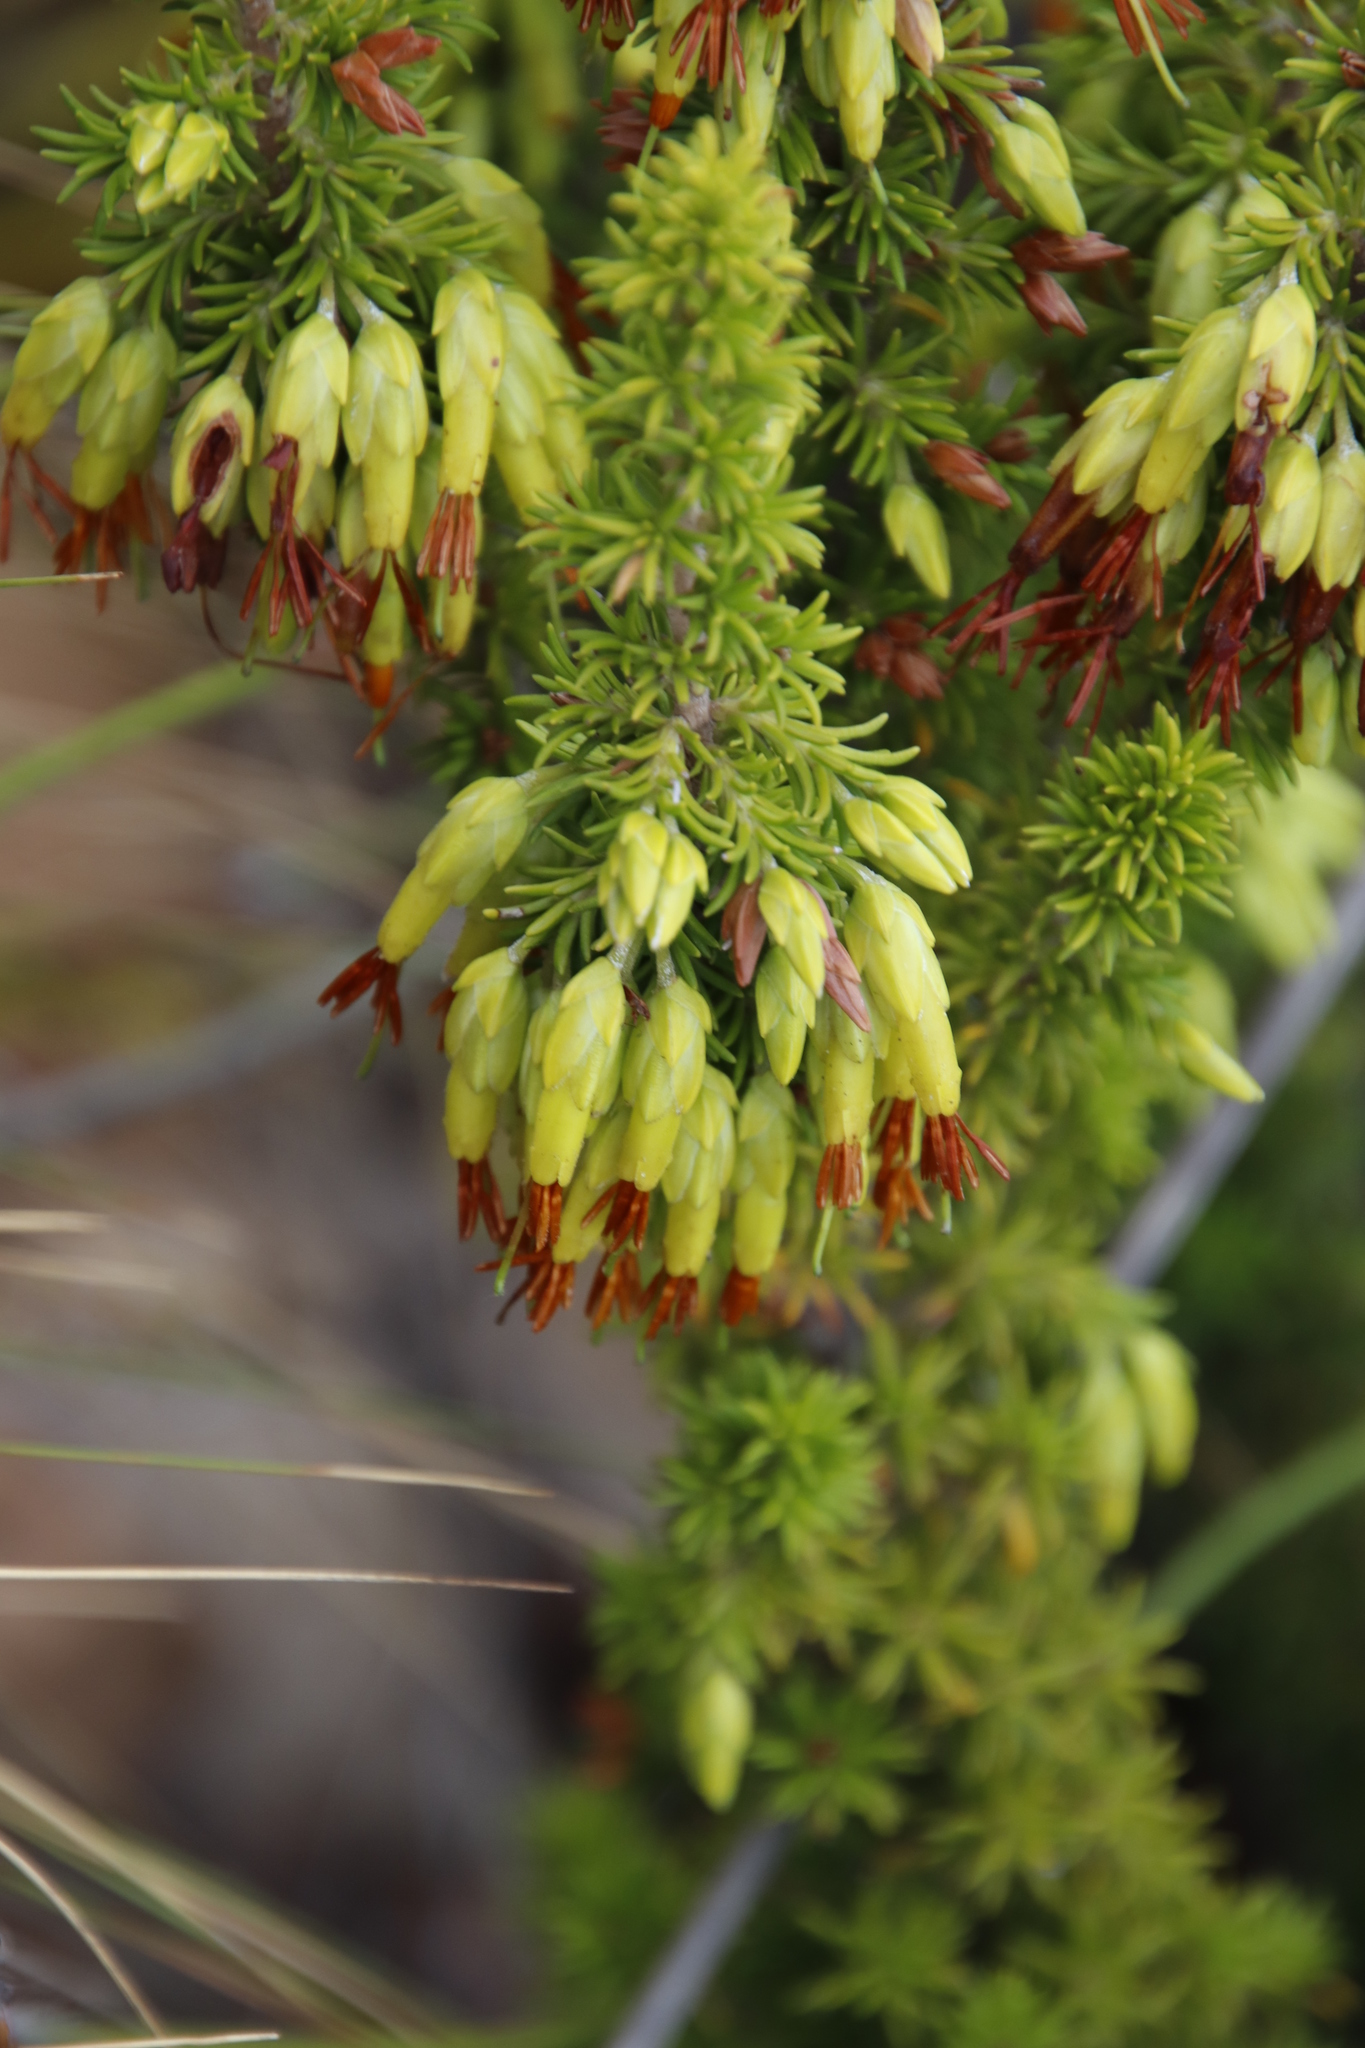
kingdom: Plantae
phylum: Tracheophyta
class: Magnoliopsida
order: Ericales
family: Ericaceae
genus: Erica
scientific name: Erica coccinea
